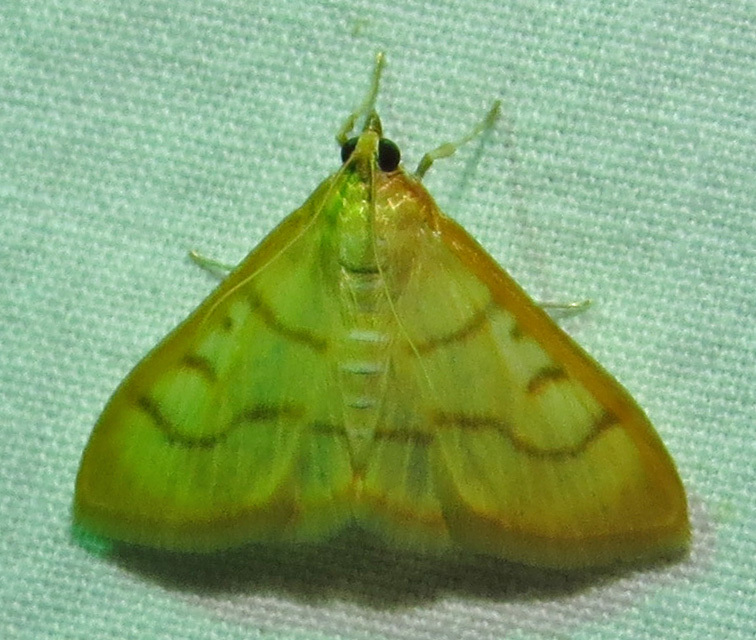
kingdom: Animalia
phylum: Arthropoda
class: Insecta
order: Lepidoptera
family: Crambidae
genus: Neohelvibotys
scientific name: Neohelvibotys neohelvialis
